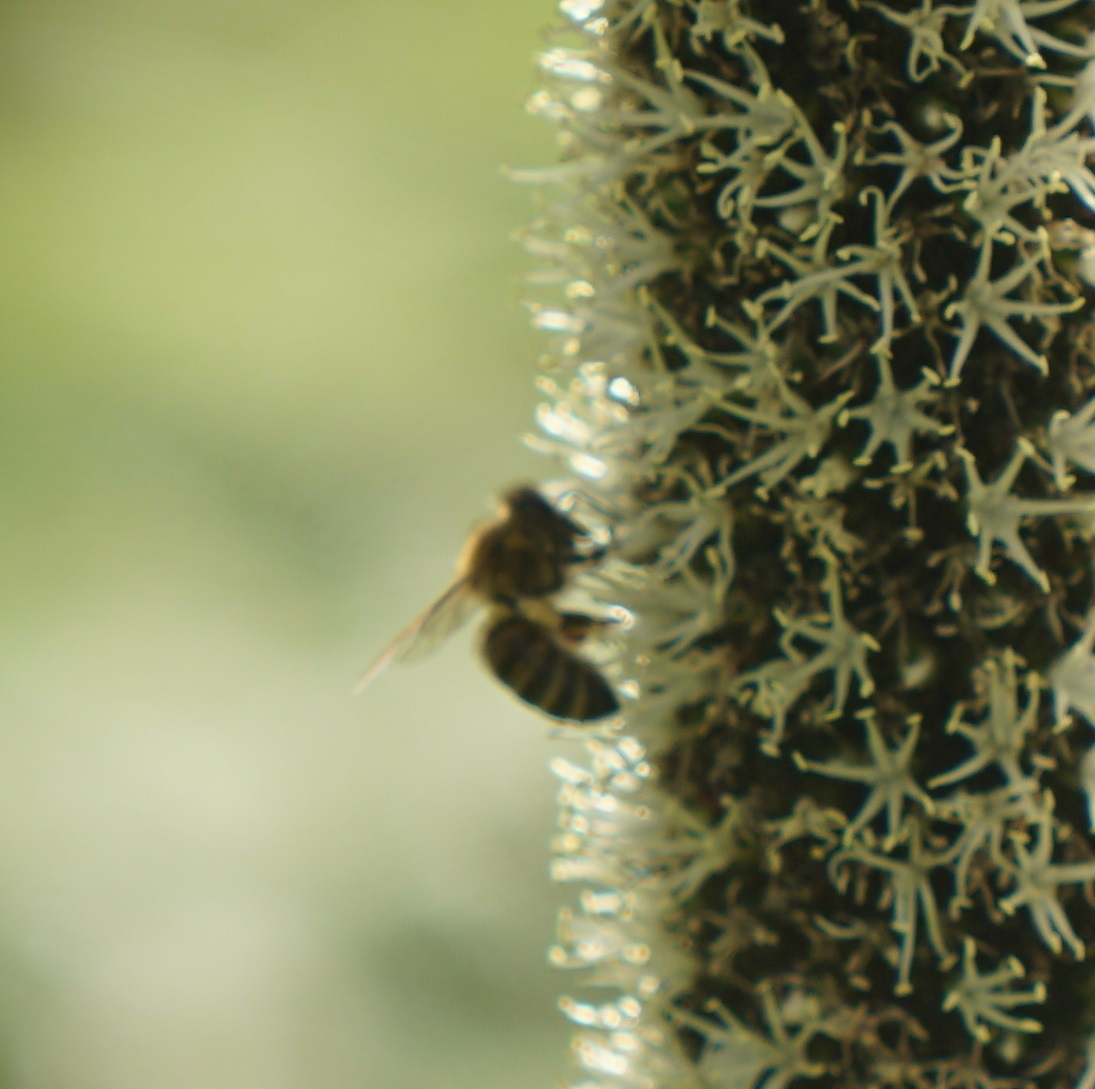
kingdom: Animalia
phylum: Arthropoda
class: Insecta
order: Hymenoptera
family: Apidae
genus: Apis
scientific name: Apis mellifera
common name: Honey bee
